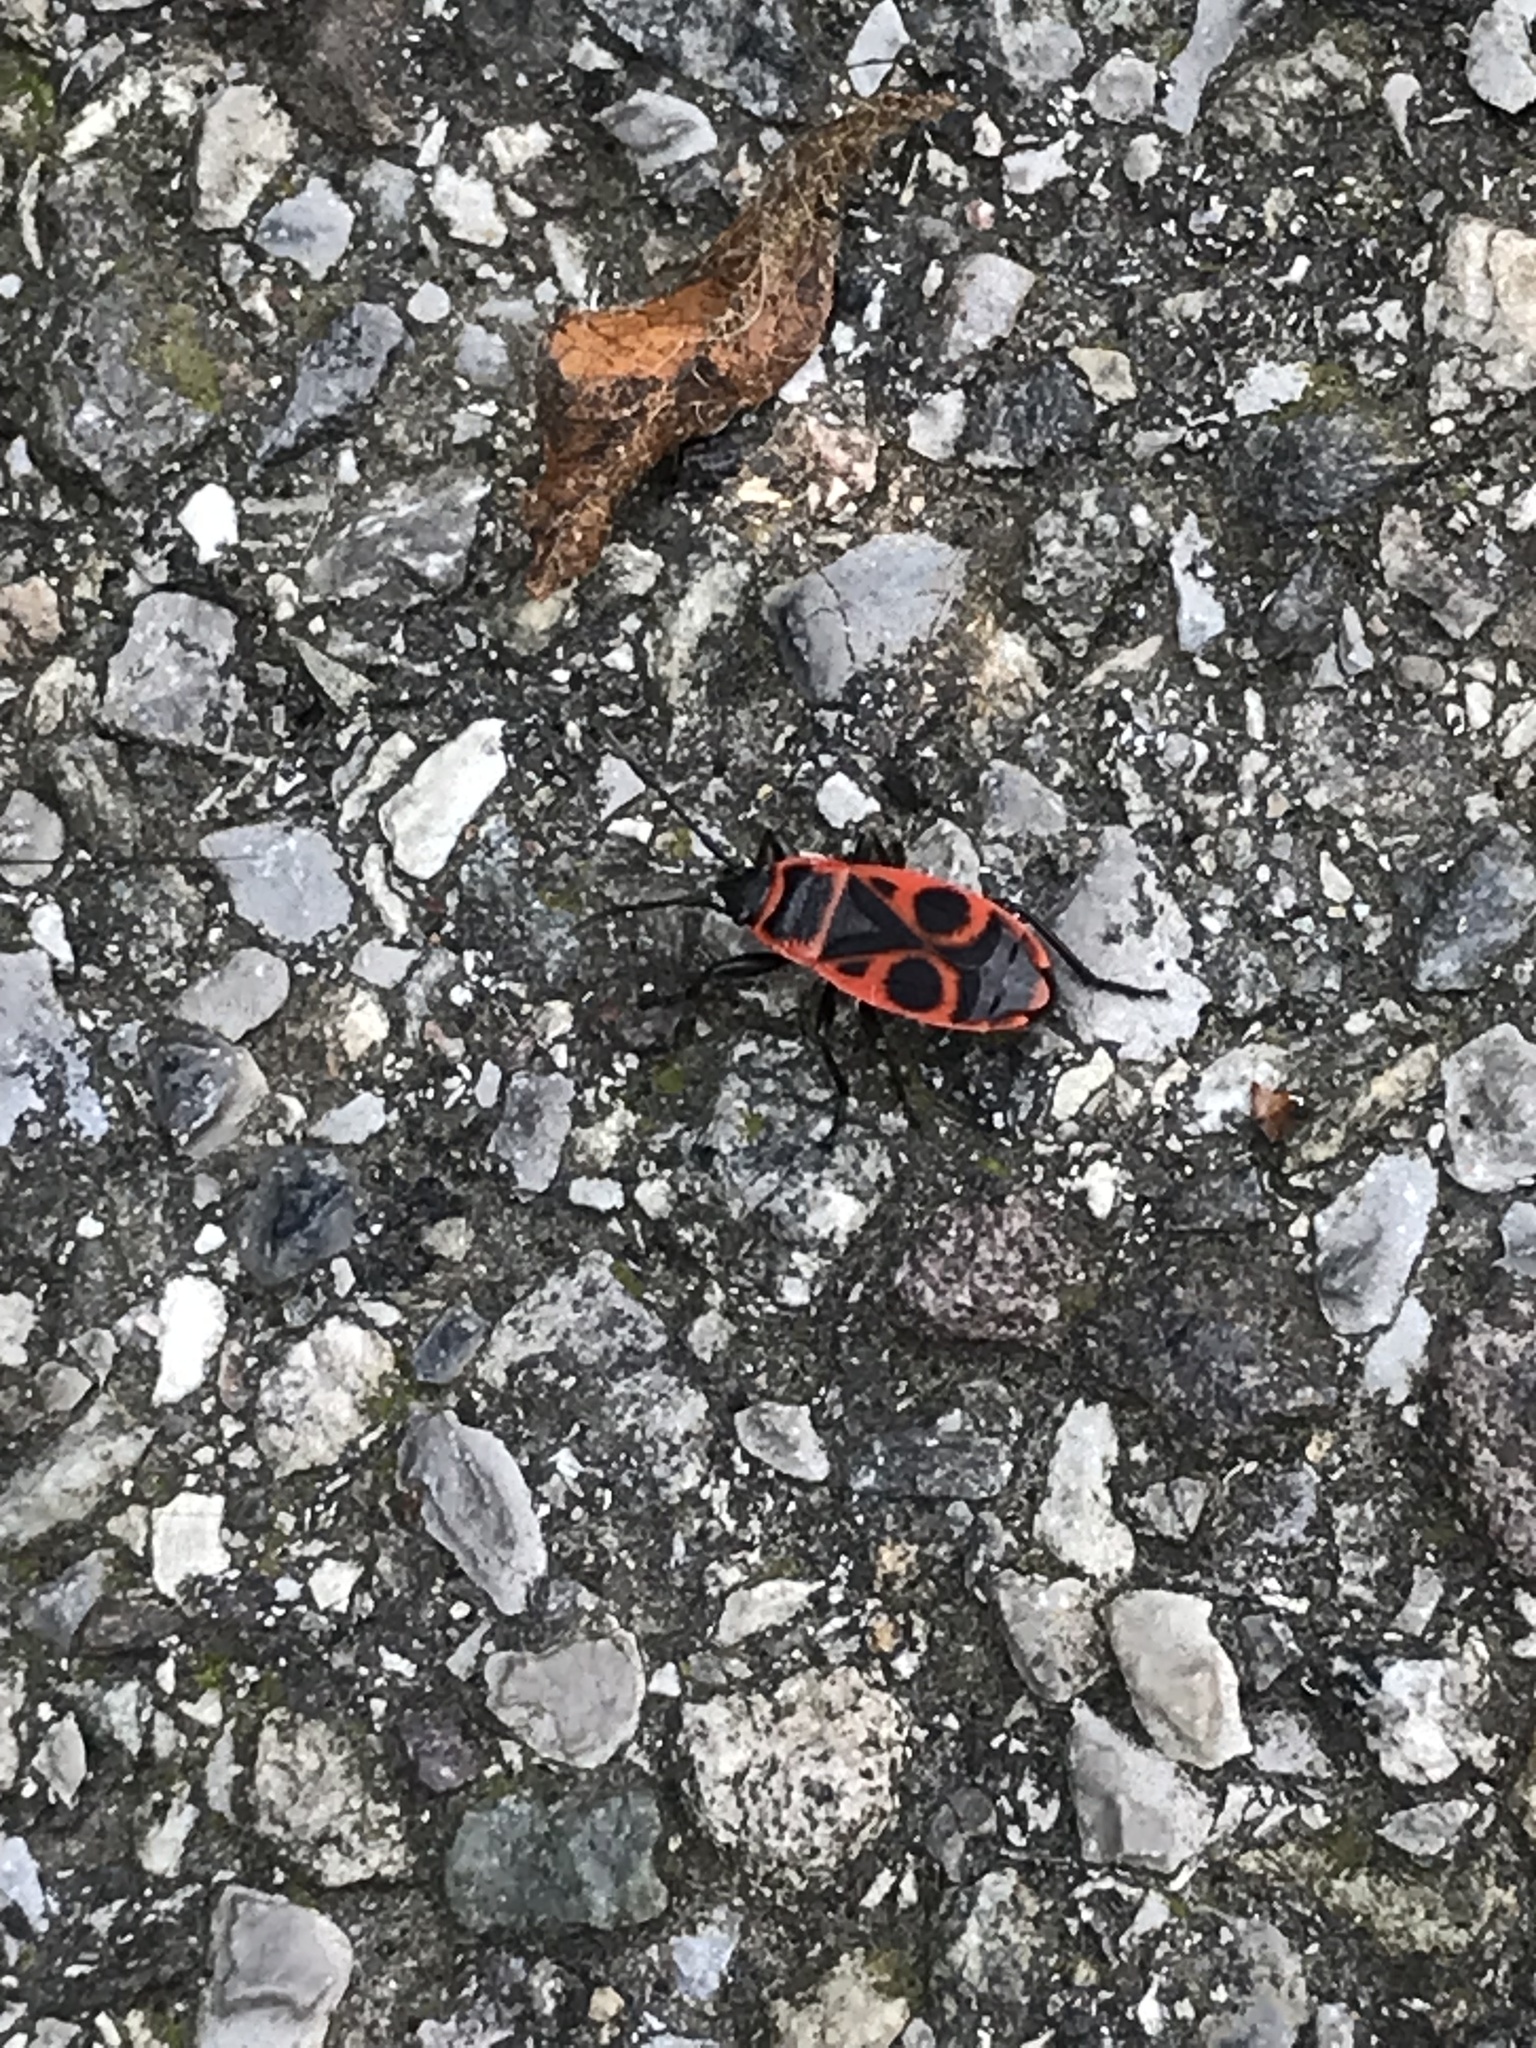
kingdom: Animalia
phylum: Arthropoda
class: Insecta
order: Hemiptera
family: Pyrrhocoridae
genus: Pyrrhocoris
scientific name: Pyrrhocoris apterus
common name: Firebug
